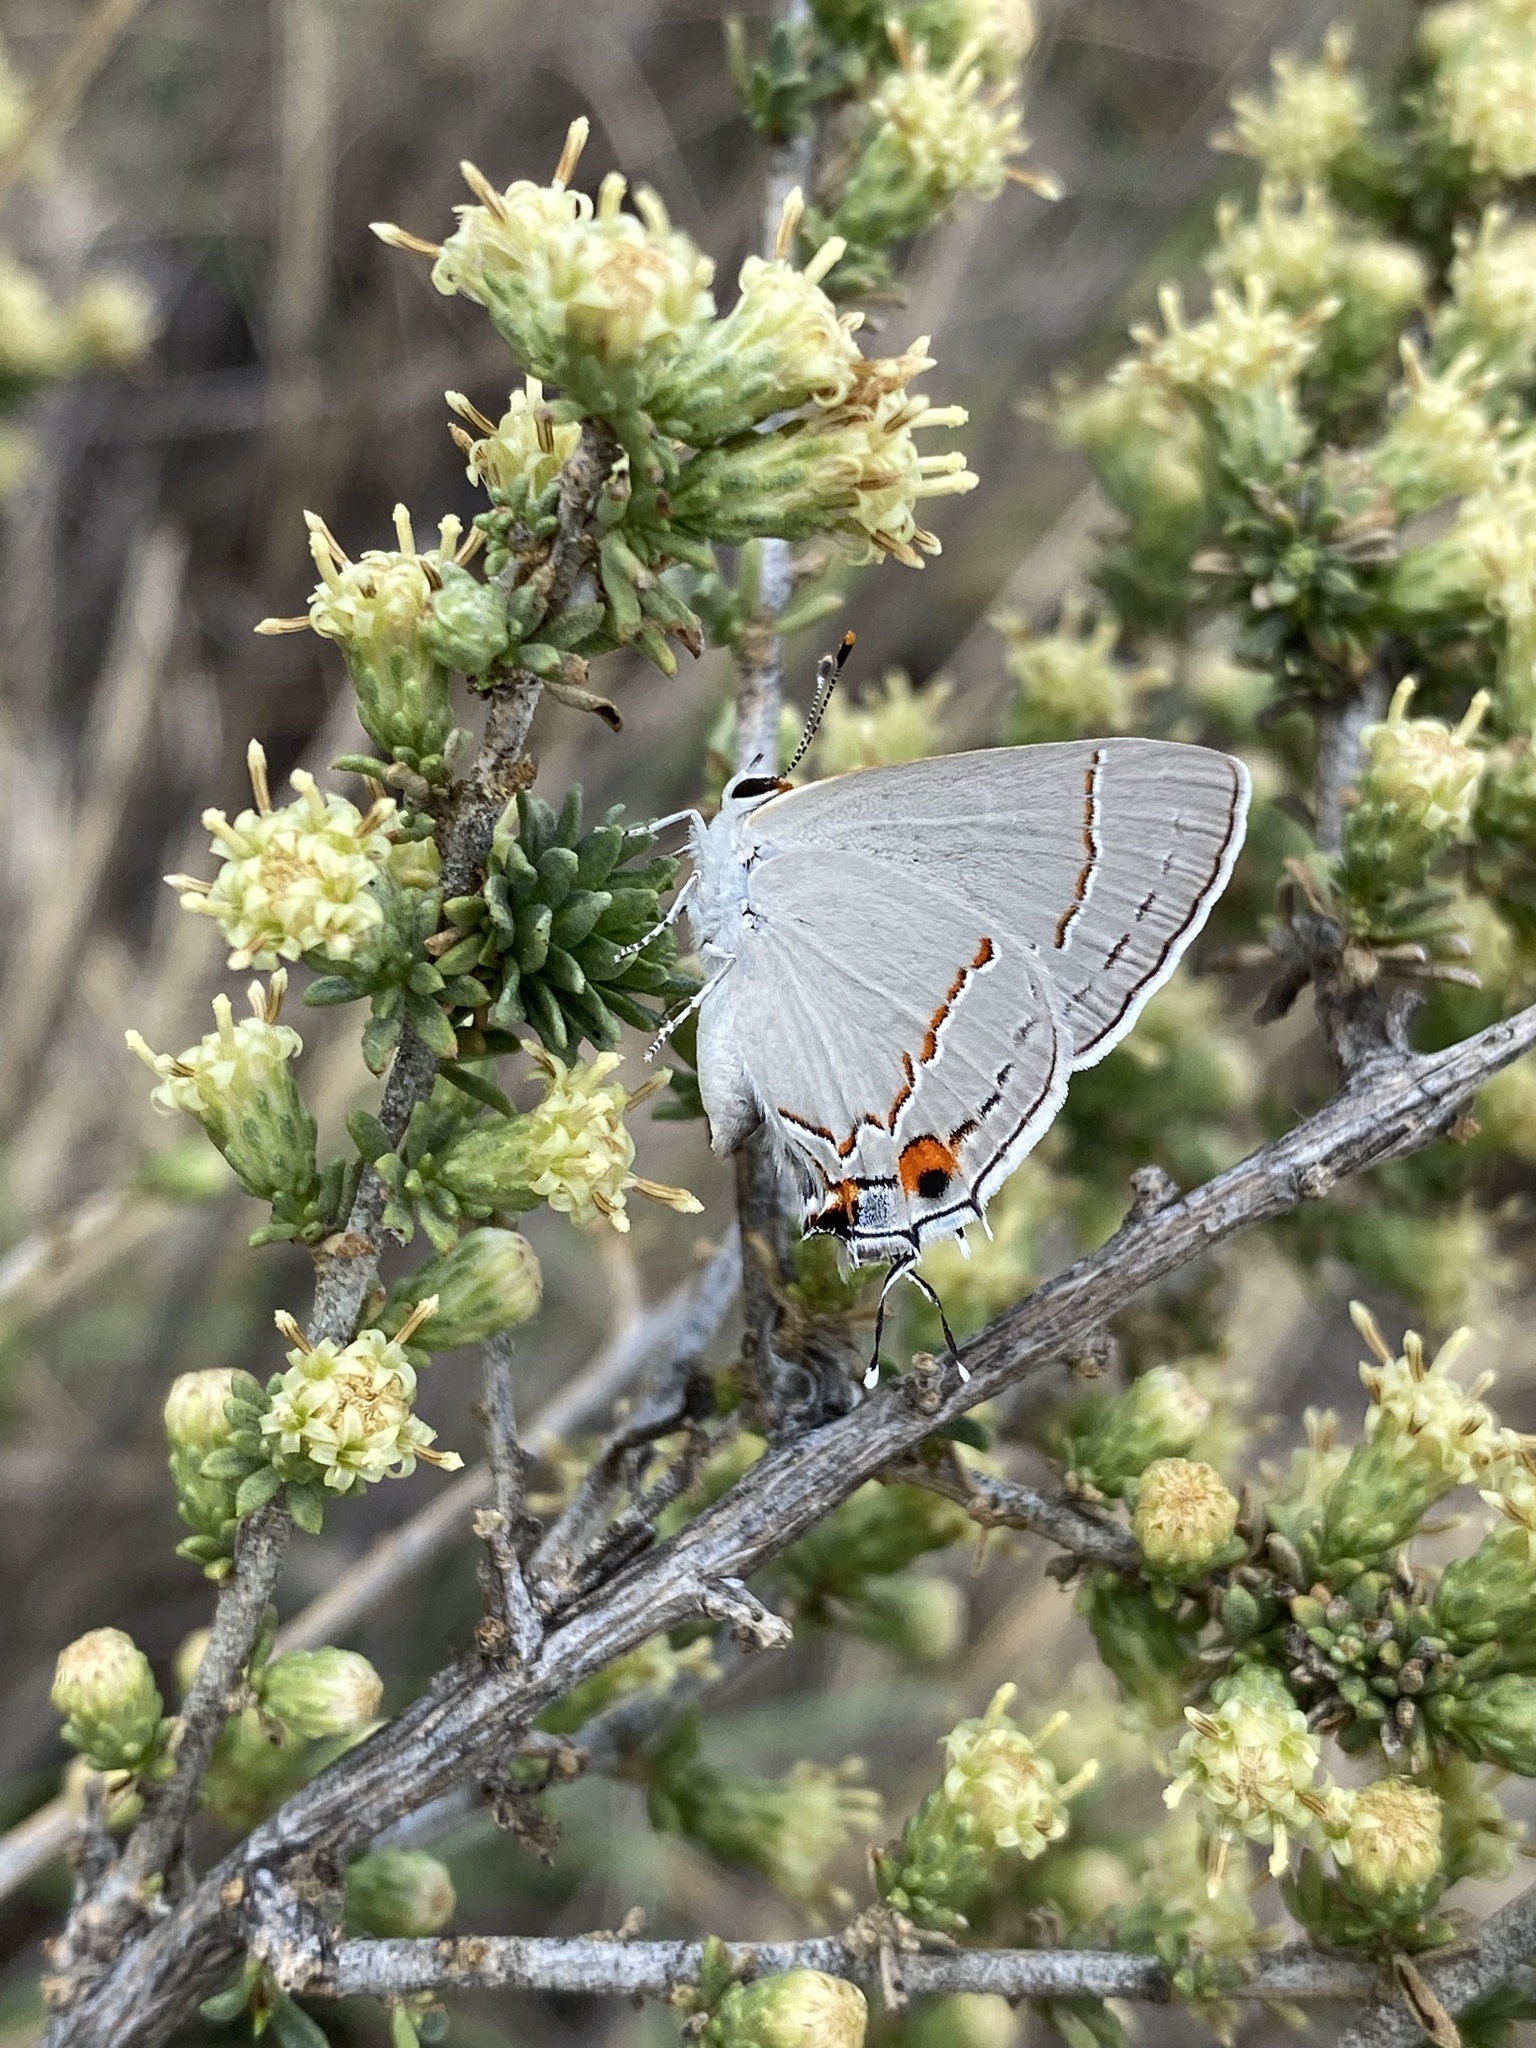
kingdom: Animalia
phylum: Arthropoda
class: Insecta
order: Lepidoptera
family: Lycaenidae
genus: Strymon
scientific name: Strymon melinus
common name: Gray hairstreak
